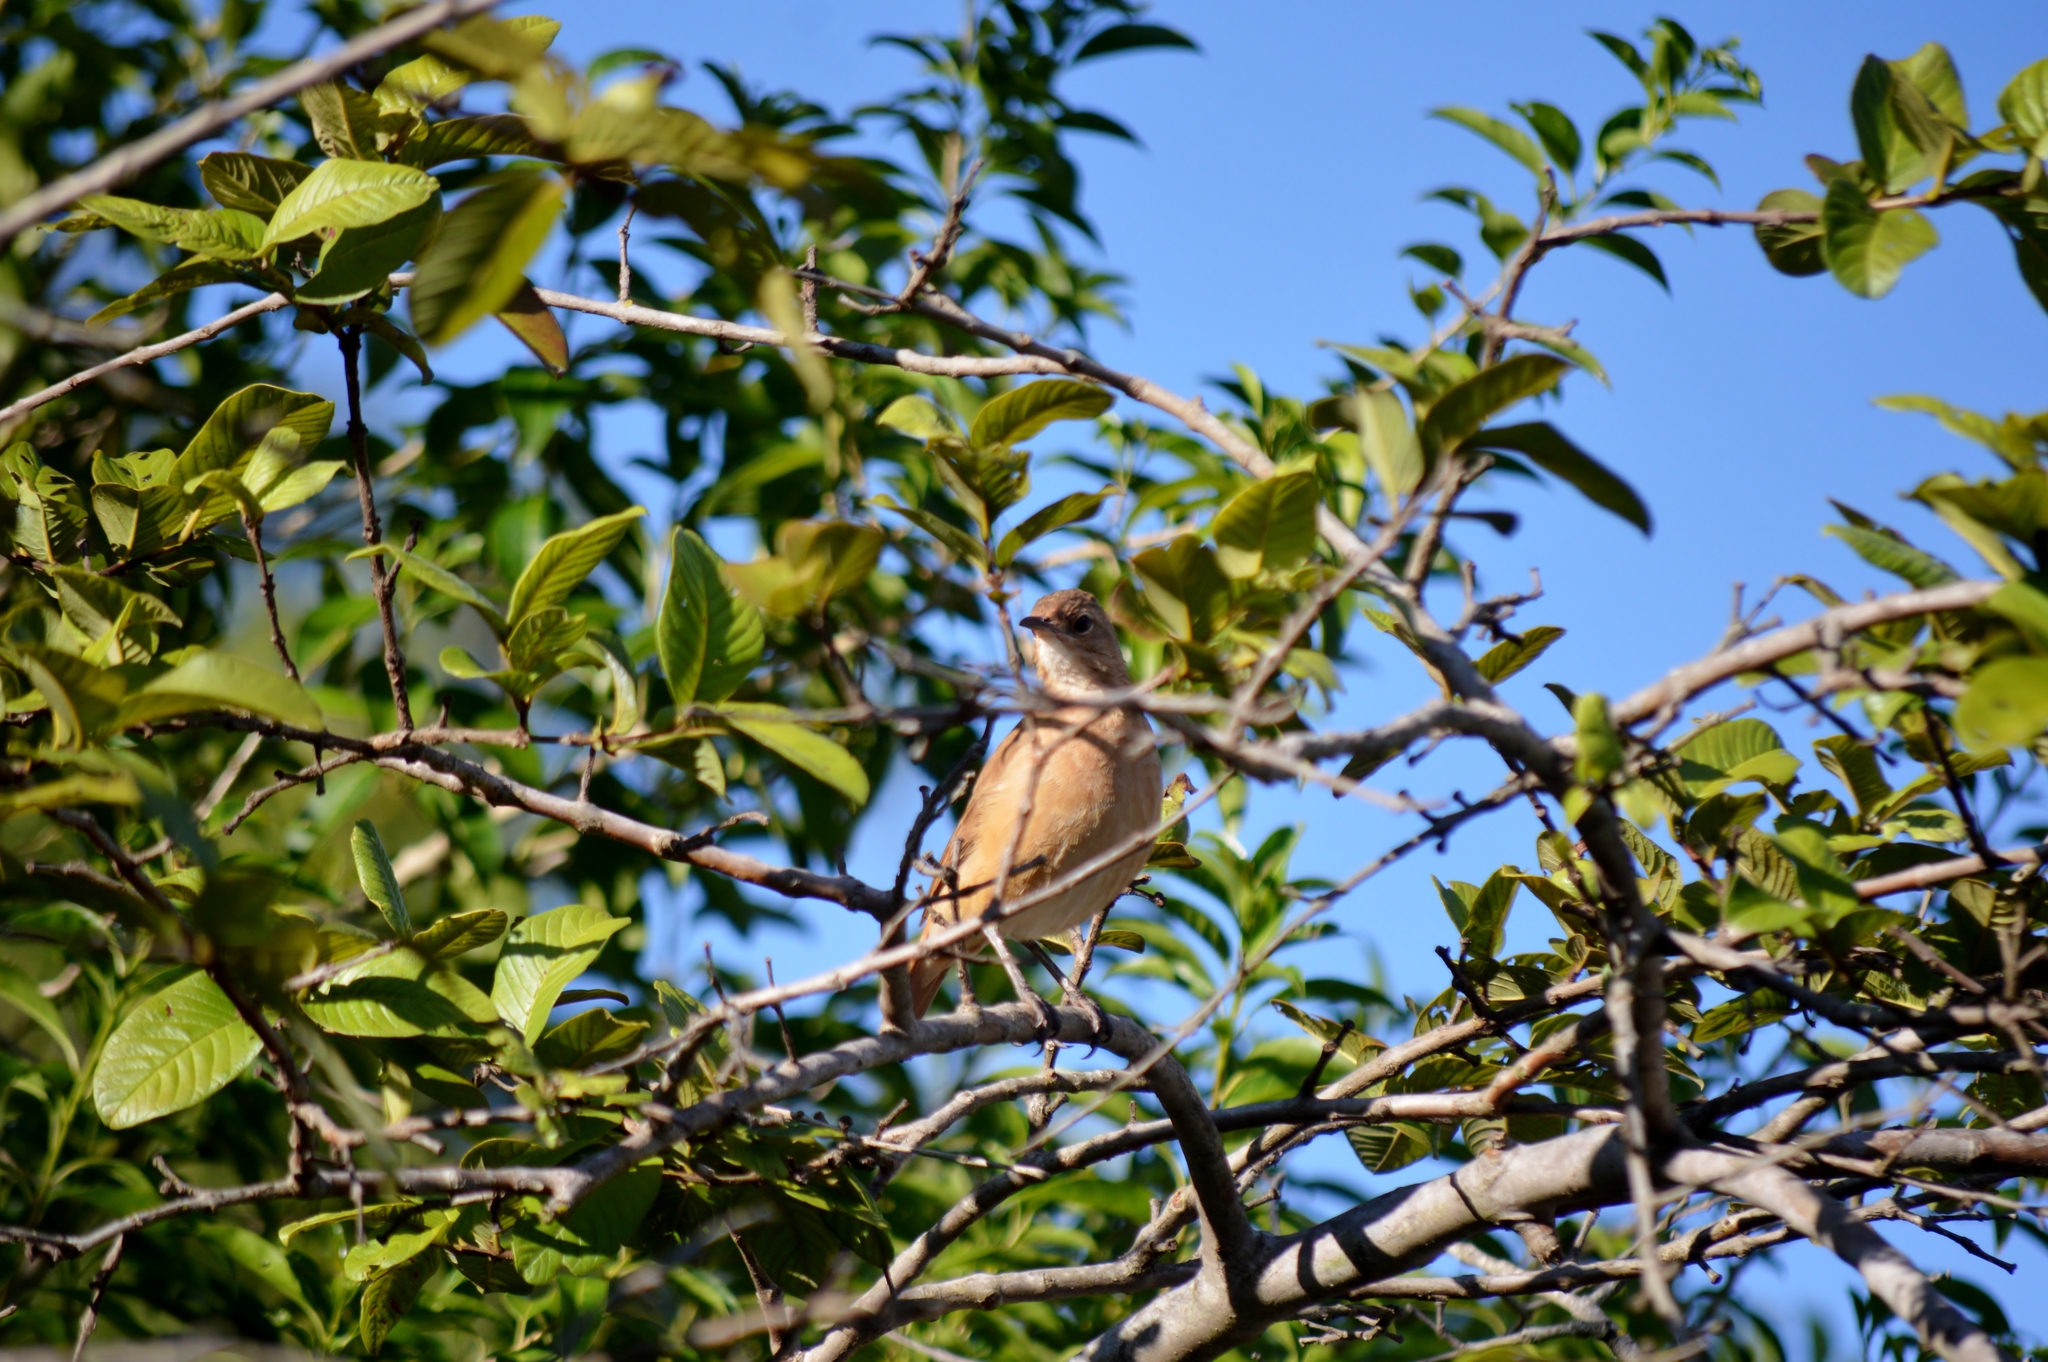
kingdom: Animalia
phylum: Chordata
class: Aves
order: Passeriformes
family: Furnariidae
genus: Furnarius
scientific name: Furnarius rufus
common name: Rufous hornero
